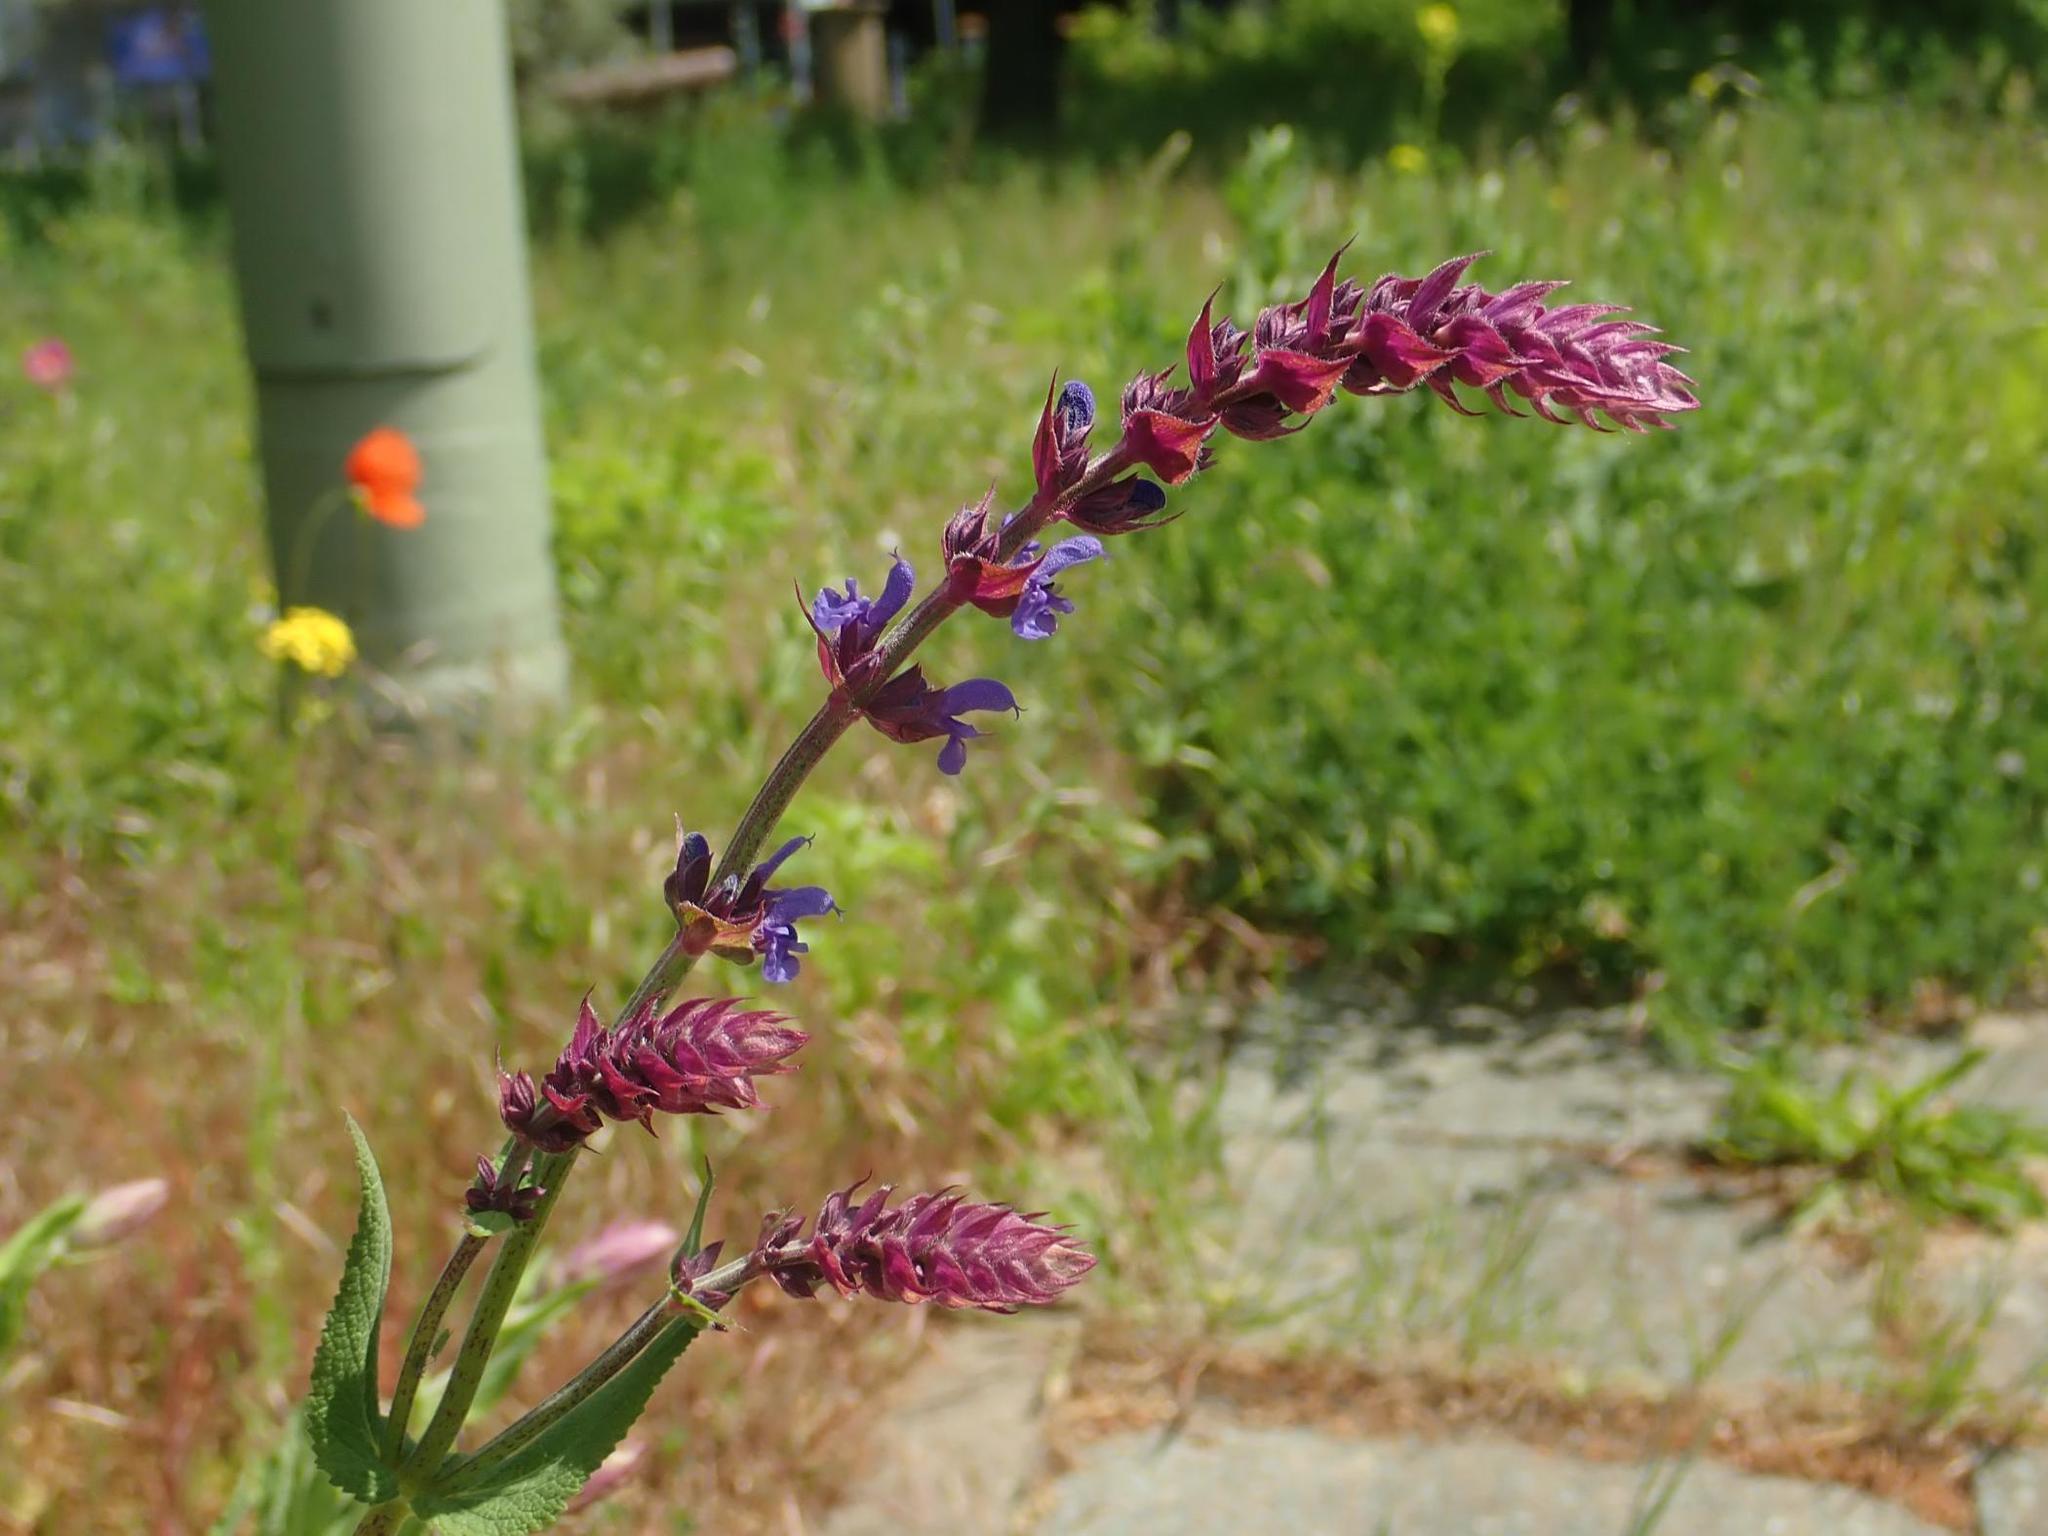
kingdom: Plantae
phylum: Tracheophyta
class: Magnoliopsida
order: Lamiales
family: Lamiaceae
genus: Salvia
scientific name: Salvia nemorosa
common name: Balkan clary
